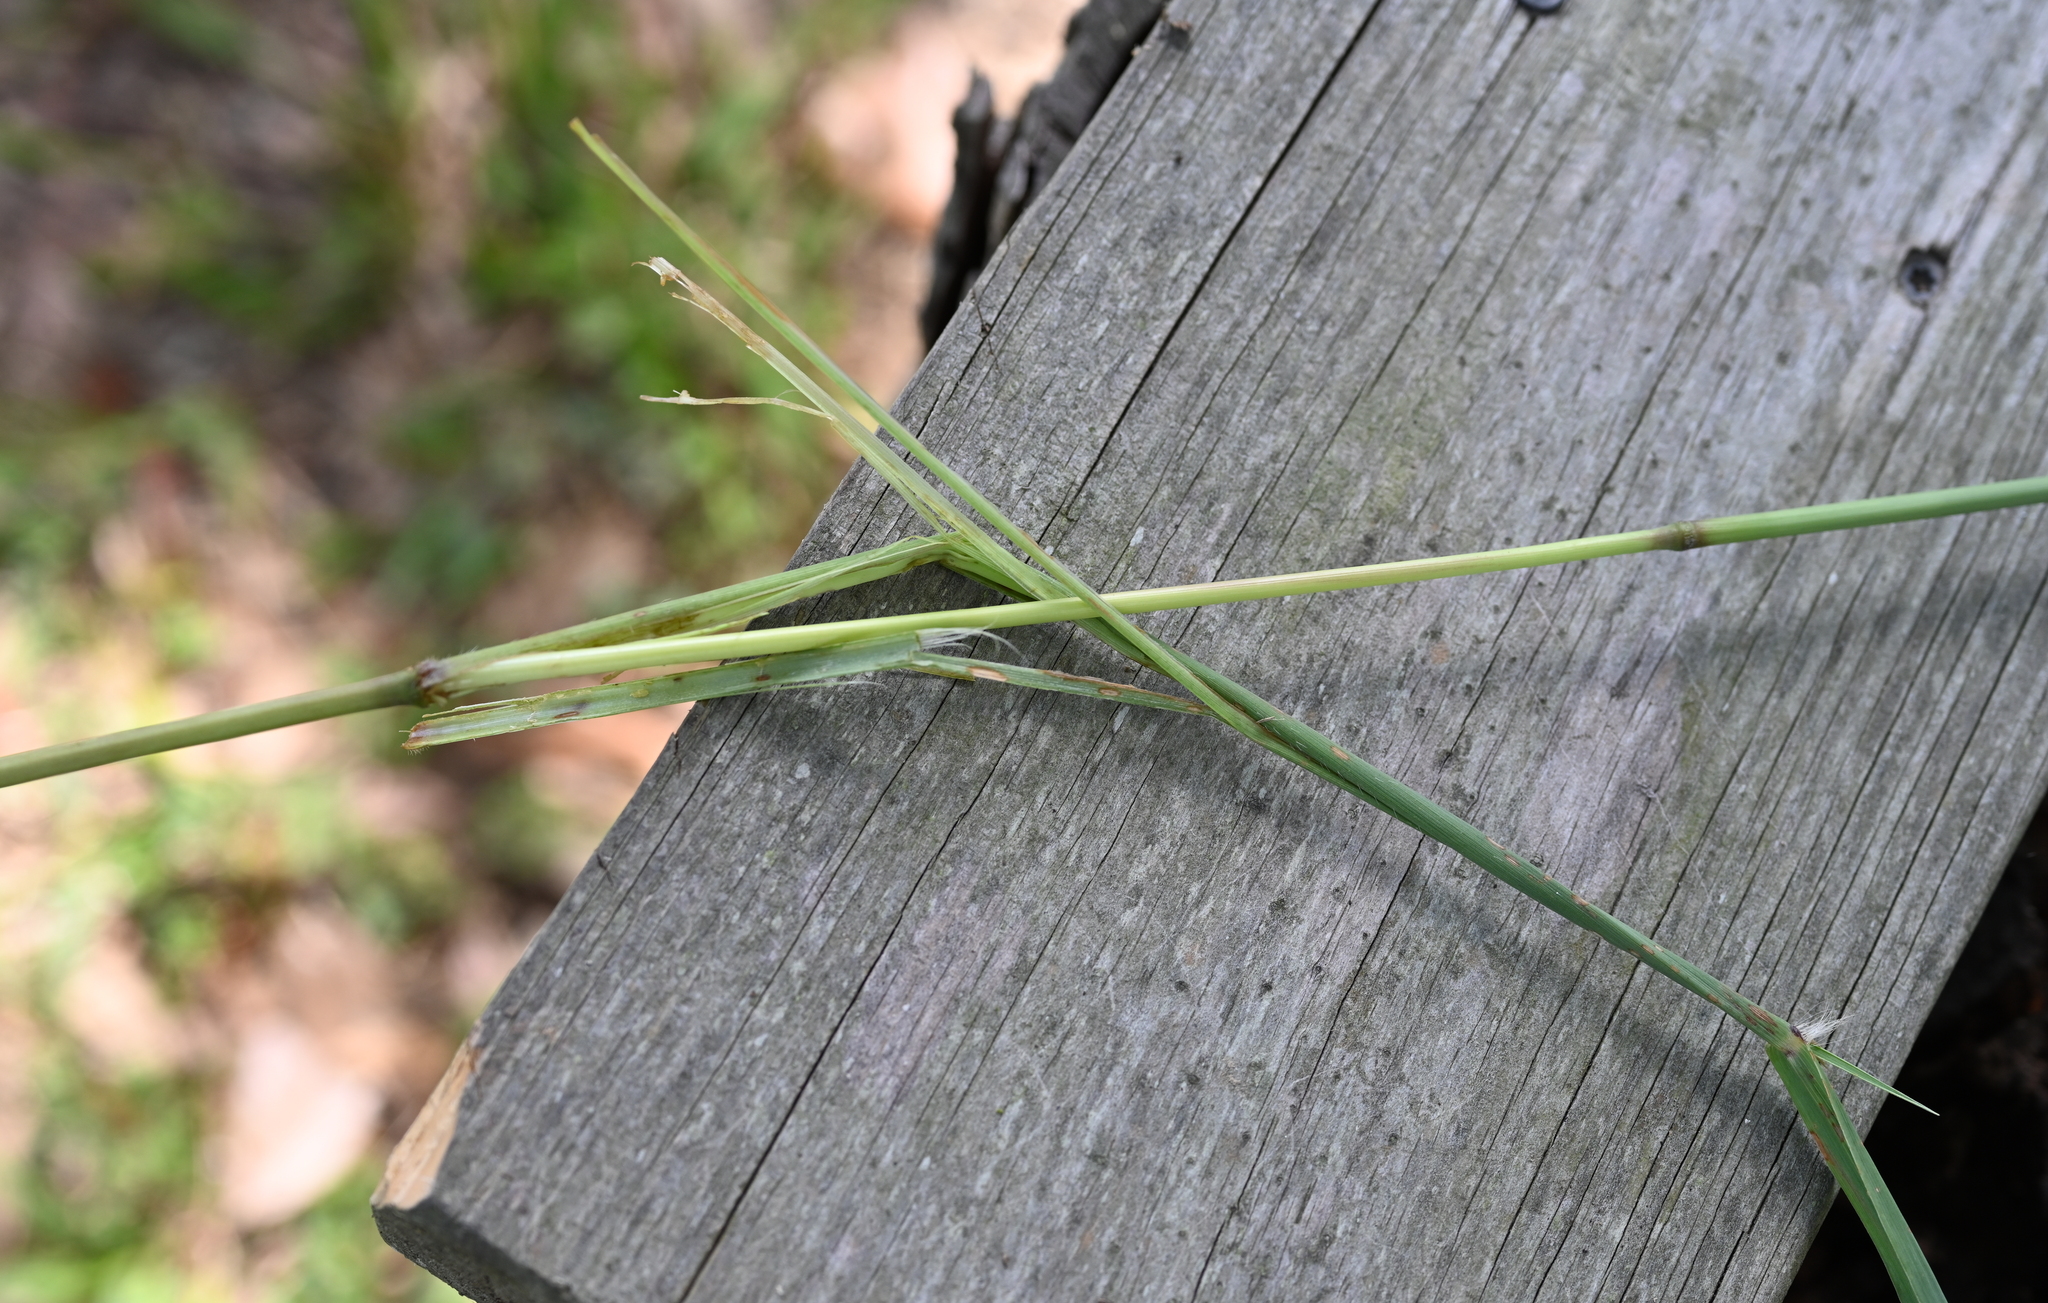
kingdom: Animalia
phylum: Chordata
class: Mammalia
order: Rodentia
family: Sciuridae
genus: Sciurus
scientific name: Sciurus carolinensis
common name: Eastern gray squirrel
